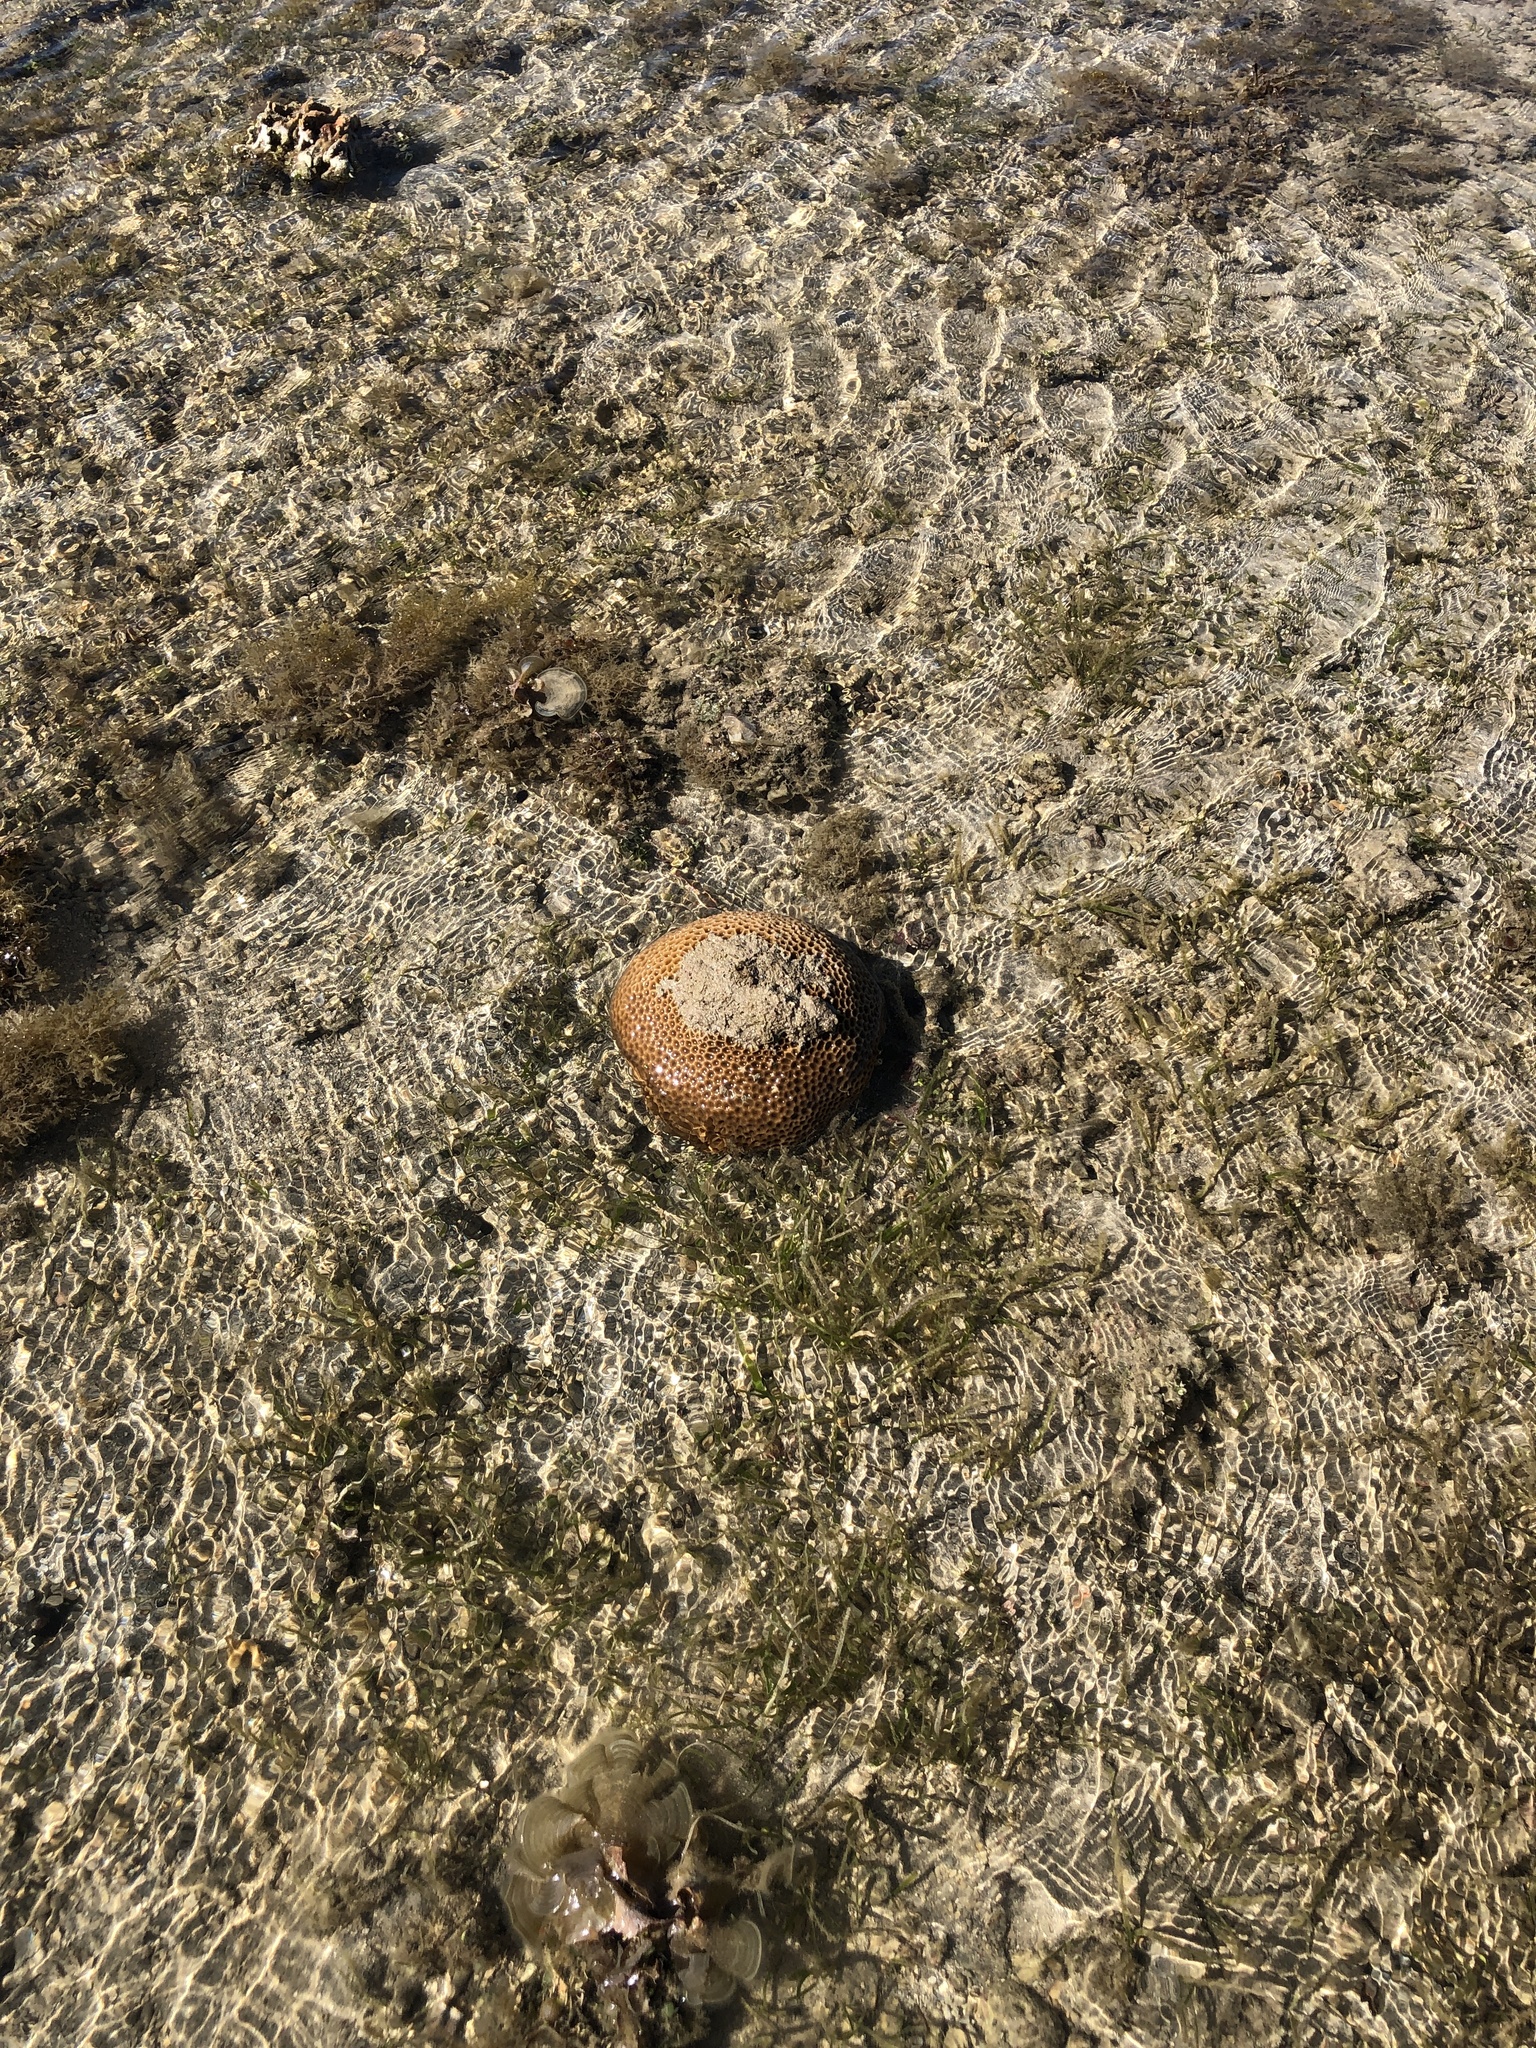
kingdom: Animalia
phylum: Cnidaria
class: Anthozoa
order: Scleractinia
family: Merulinidae
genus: Coelastrea
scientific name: Coelastrea aspera
